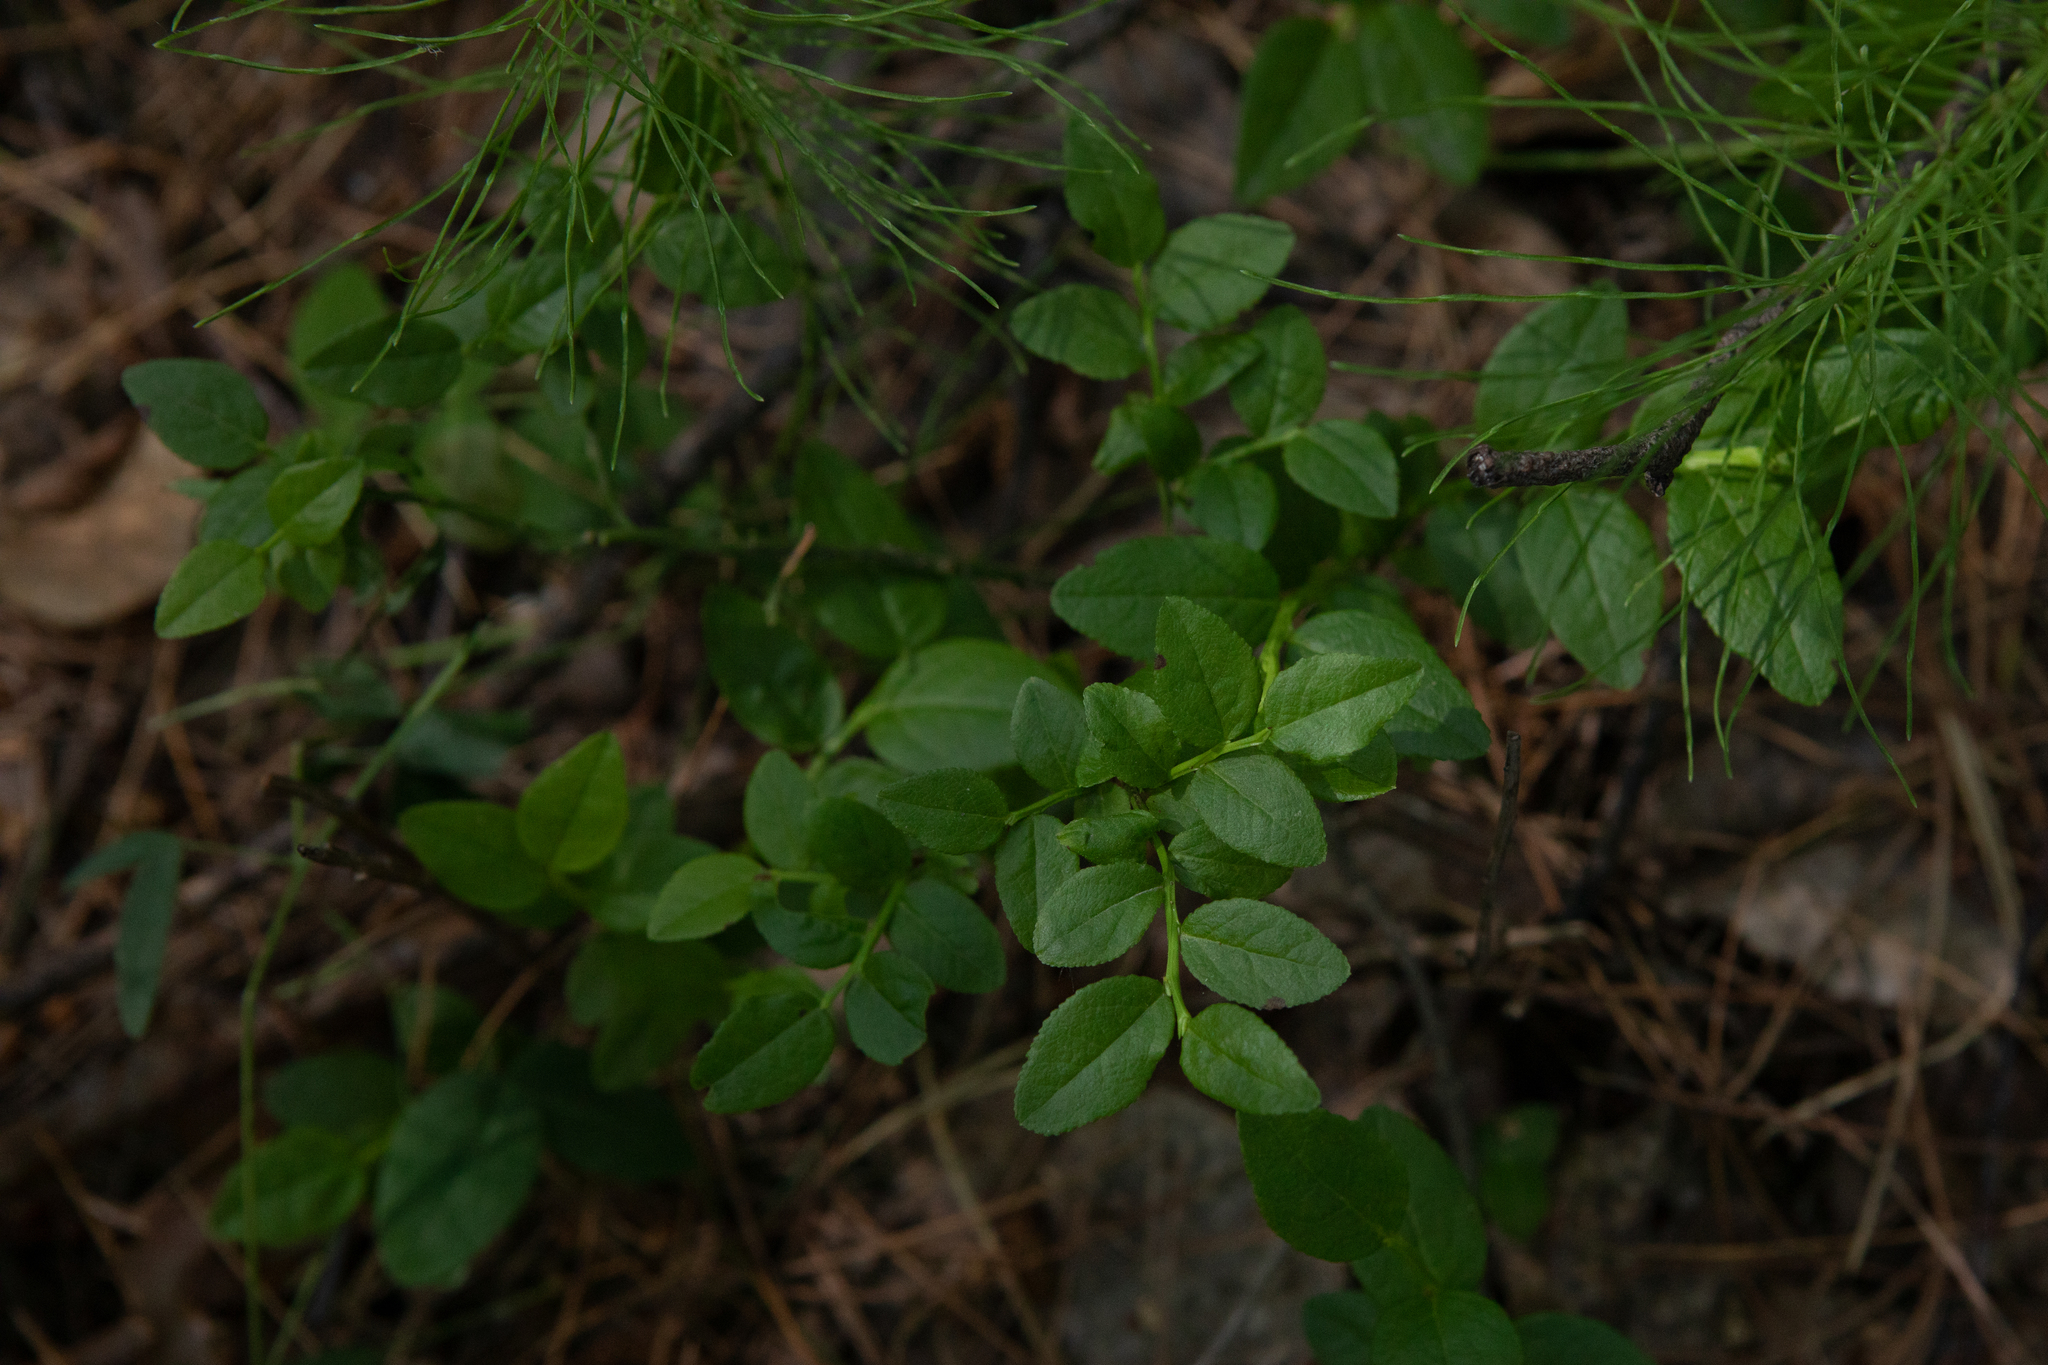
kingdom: Plantae
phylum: Tracheophyta
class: Magnoliopsida
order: Ericales
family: Ericaceae
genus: Vaccinium
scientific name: Vaccinium myrtillus
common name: Bilberry
